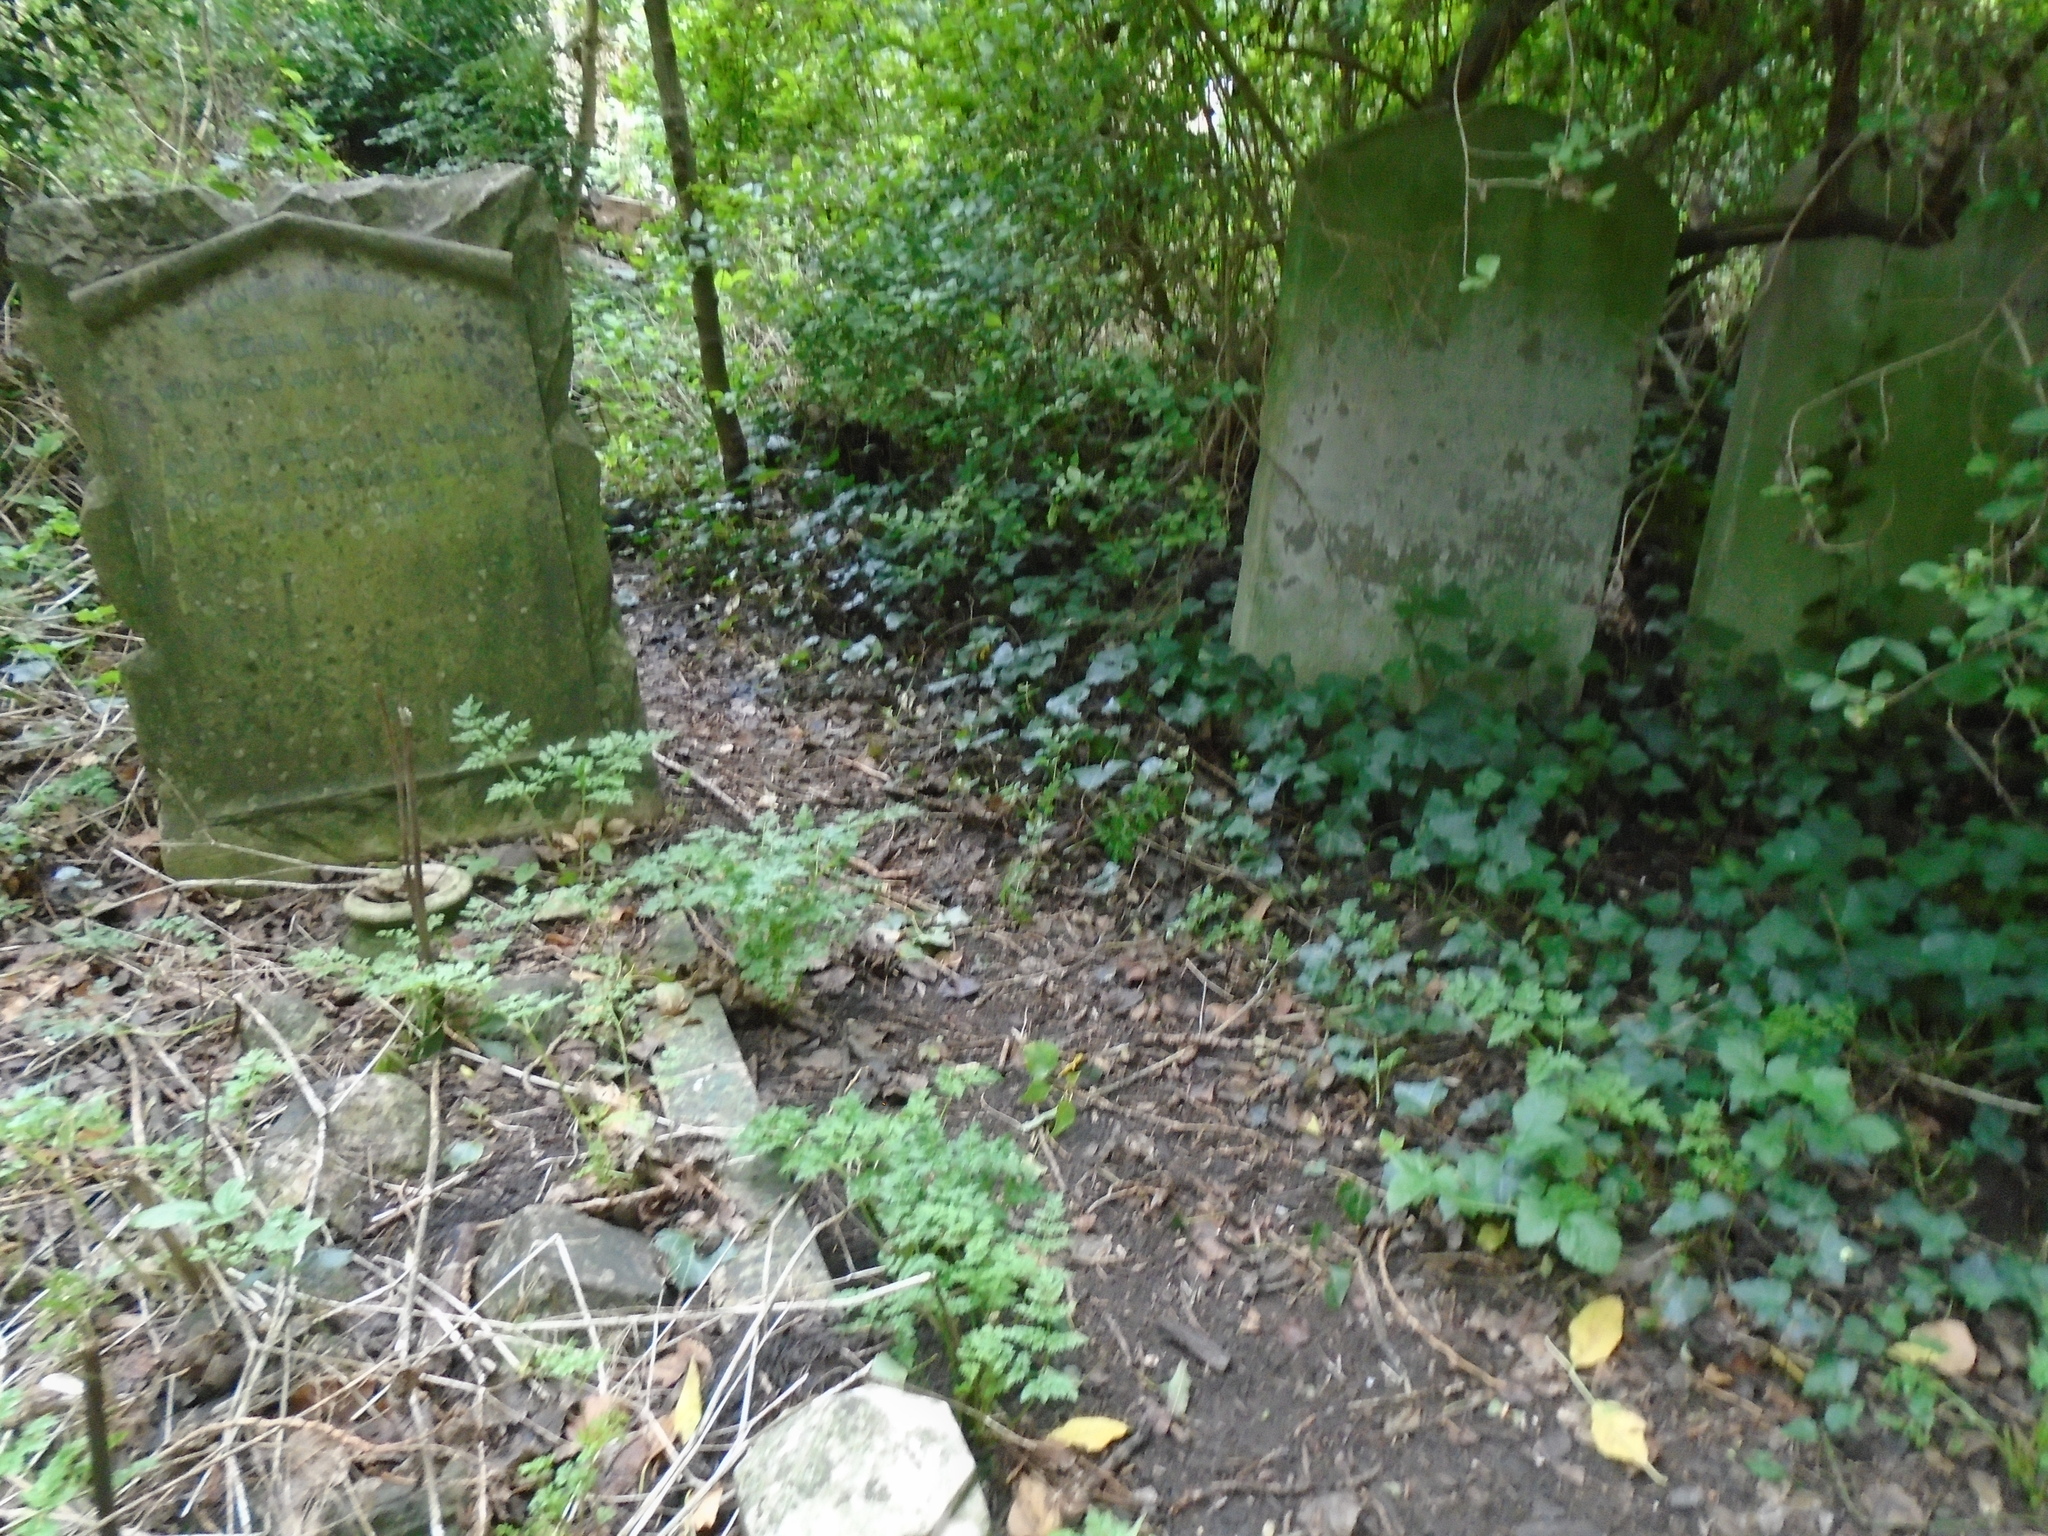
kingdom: Plantae
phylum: Tracheophyta
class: Magnoliopsida
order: Apiales
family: Apiaceae
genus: Anthriscus
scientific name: Anthriscus sylvestris
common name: Cow parsley
